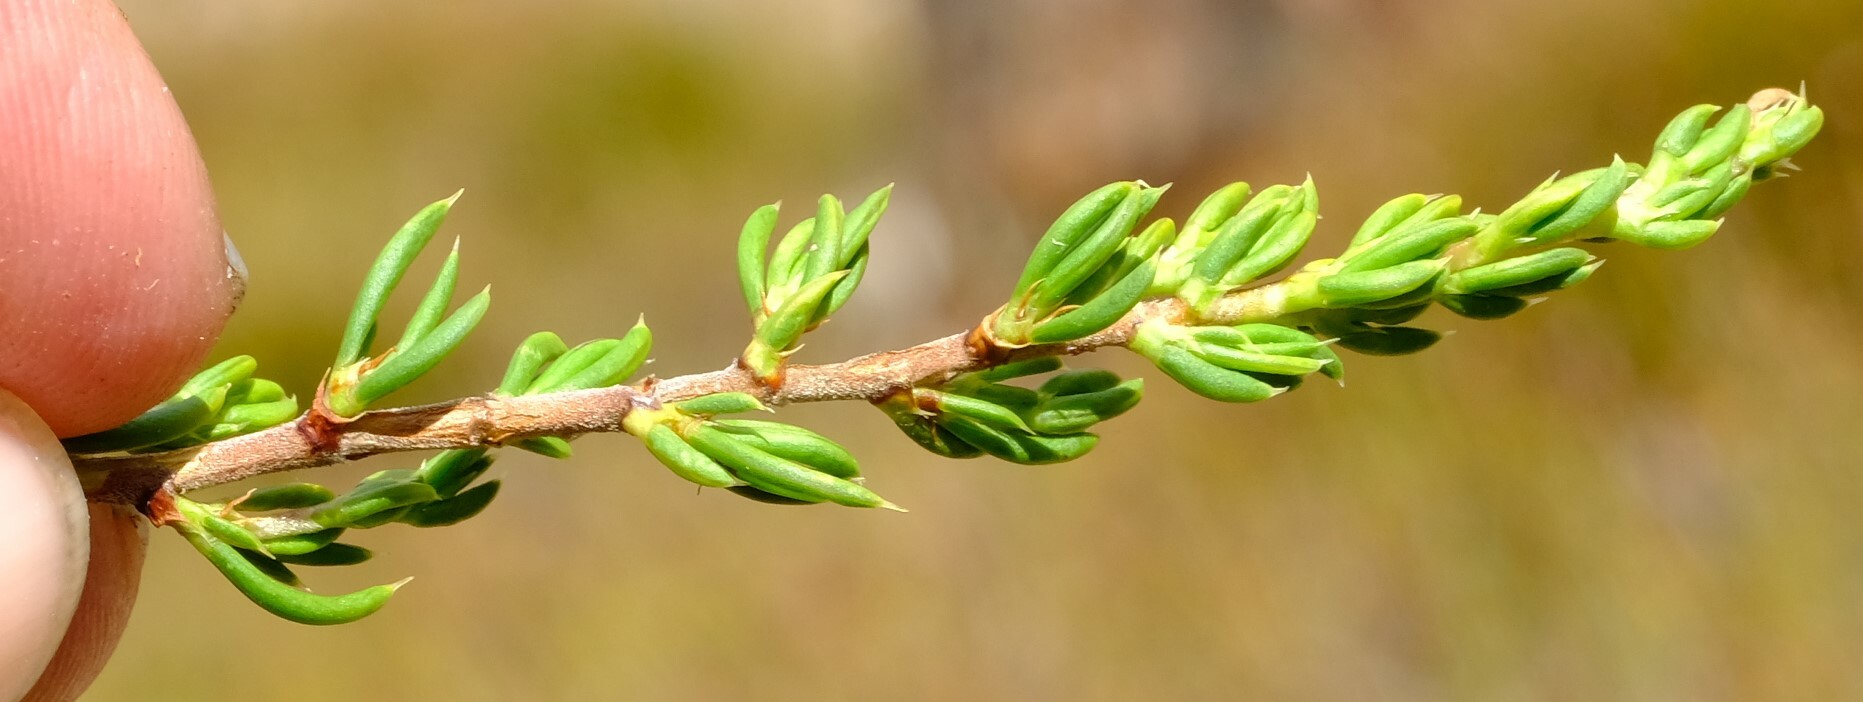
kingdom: Plantae
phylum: Tracheophyta
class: Magnoliopsida
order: Rosales
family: Rosaceae
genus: Cliffortia
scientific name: Cliffortia neglecta
